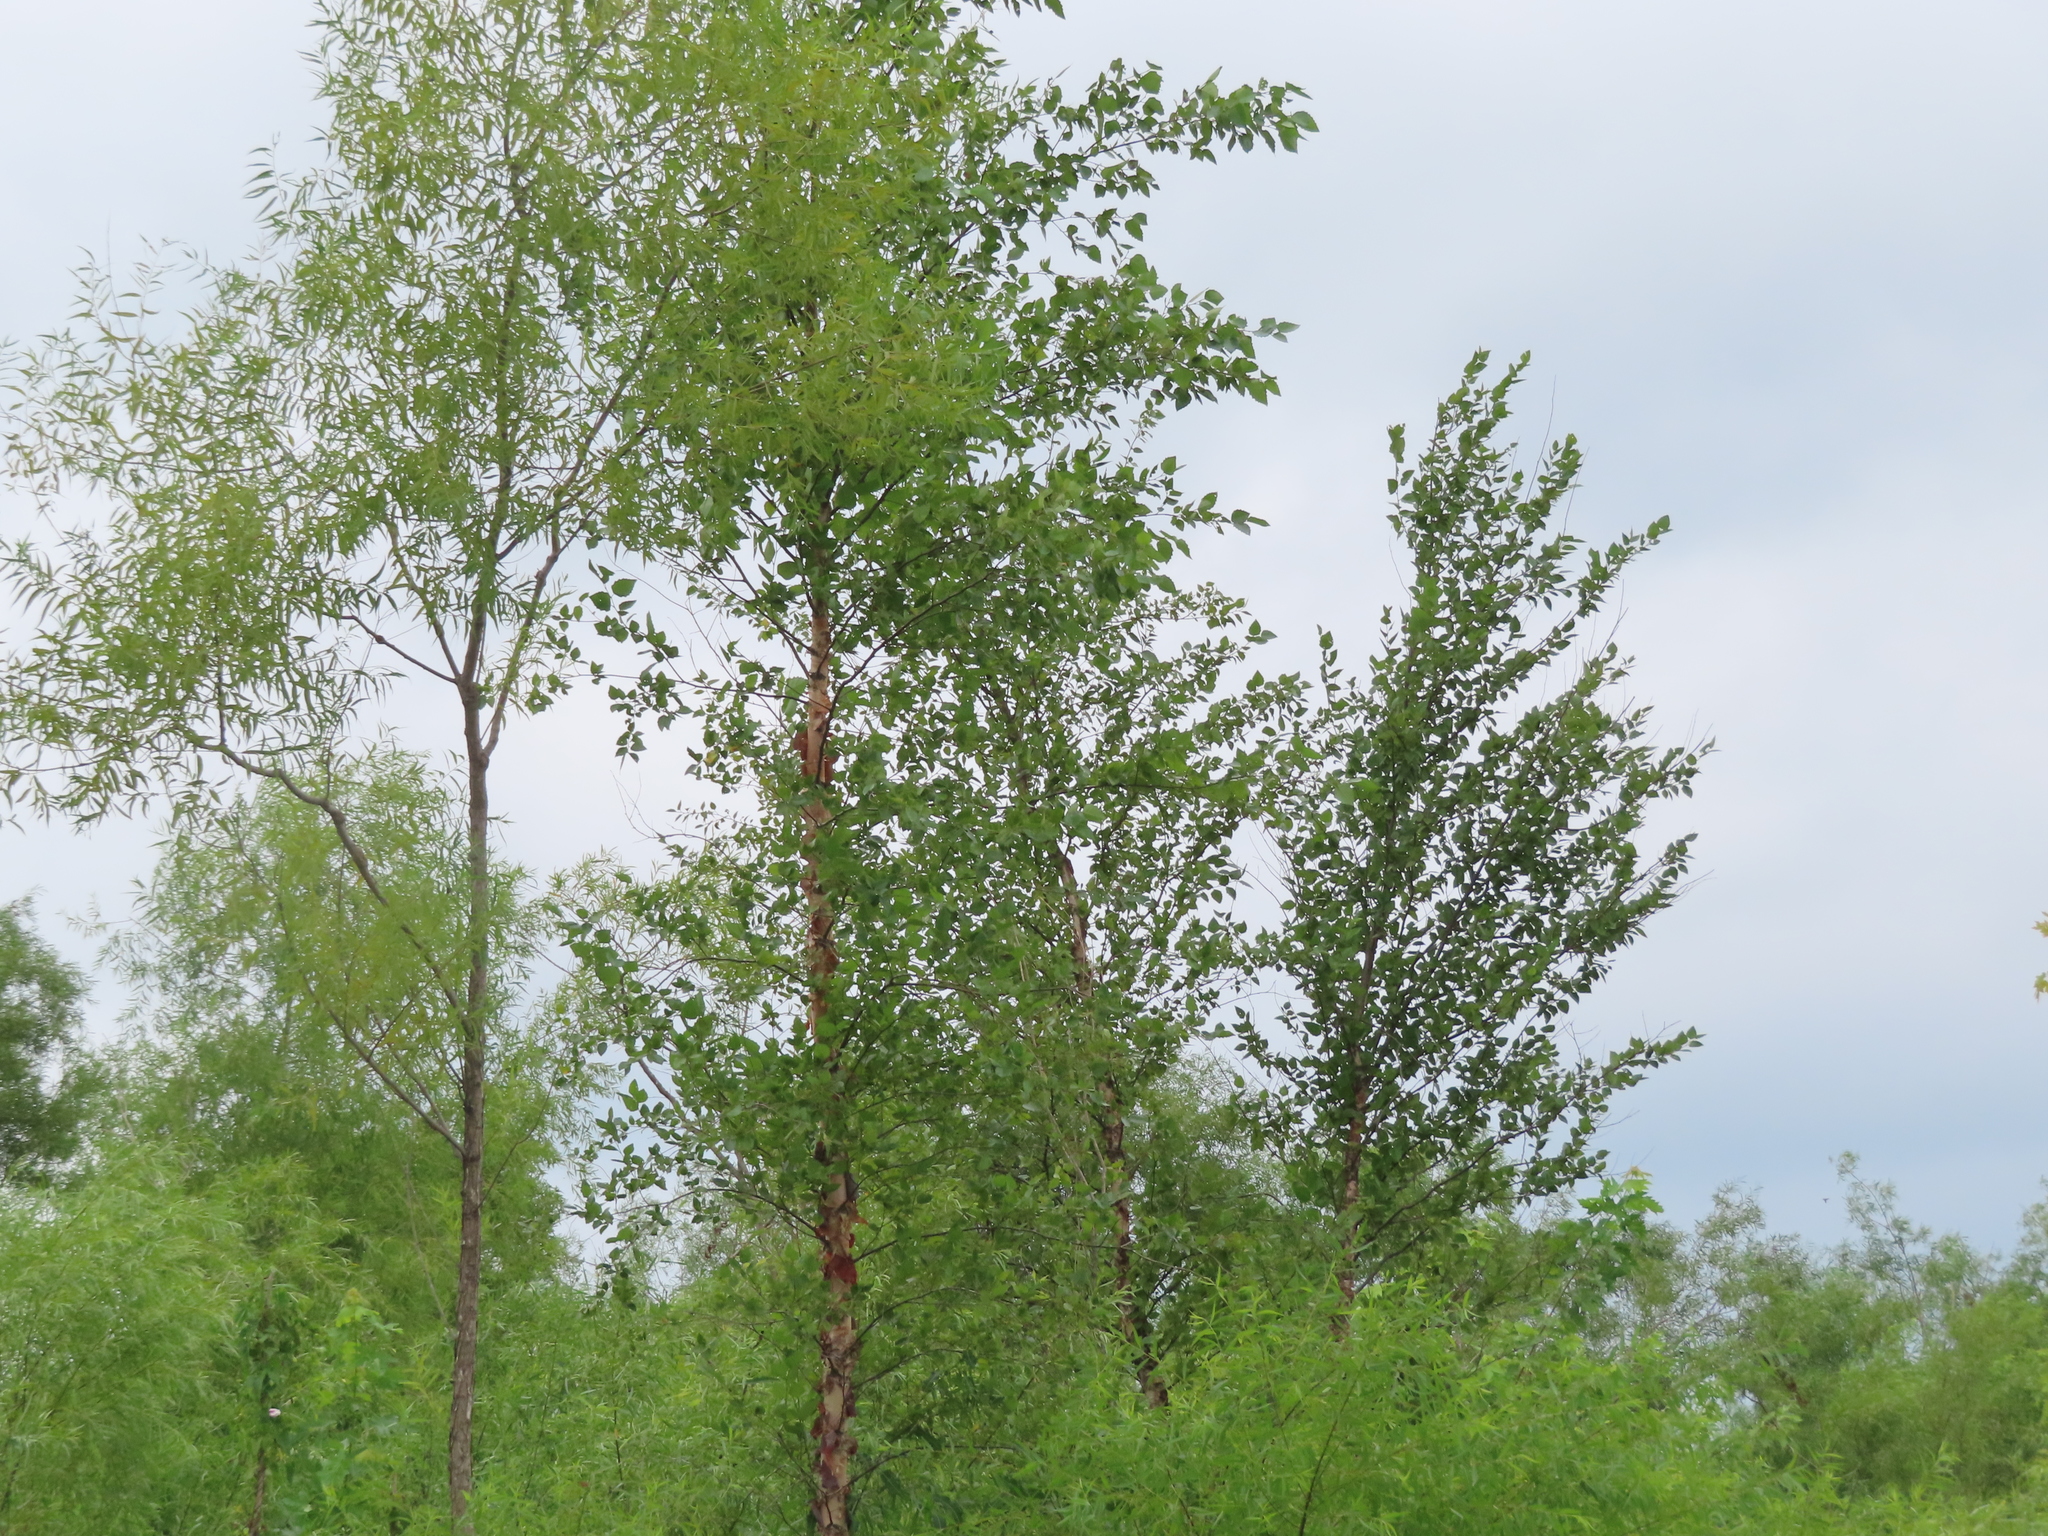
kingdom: Plantae
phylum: Tracheophyta
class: Magnoliopsida
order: Fagales
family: Betulaceae
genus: Betula
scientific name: Betula nigra
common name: Black birch
